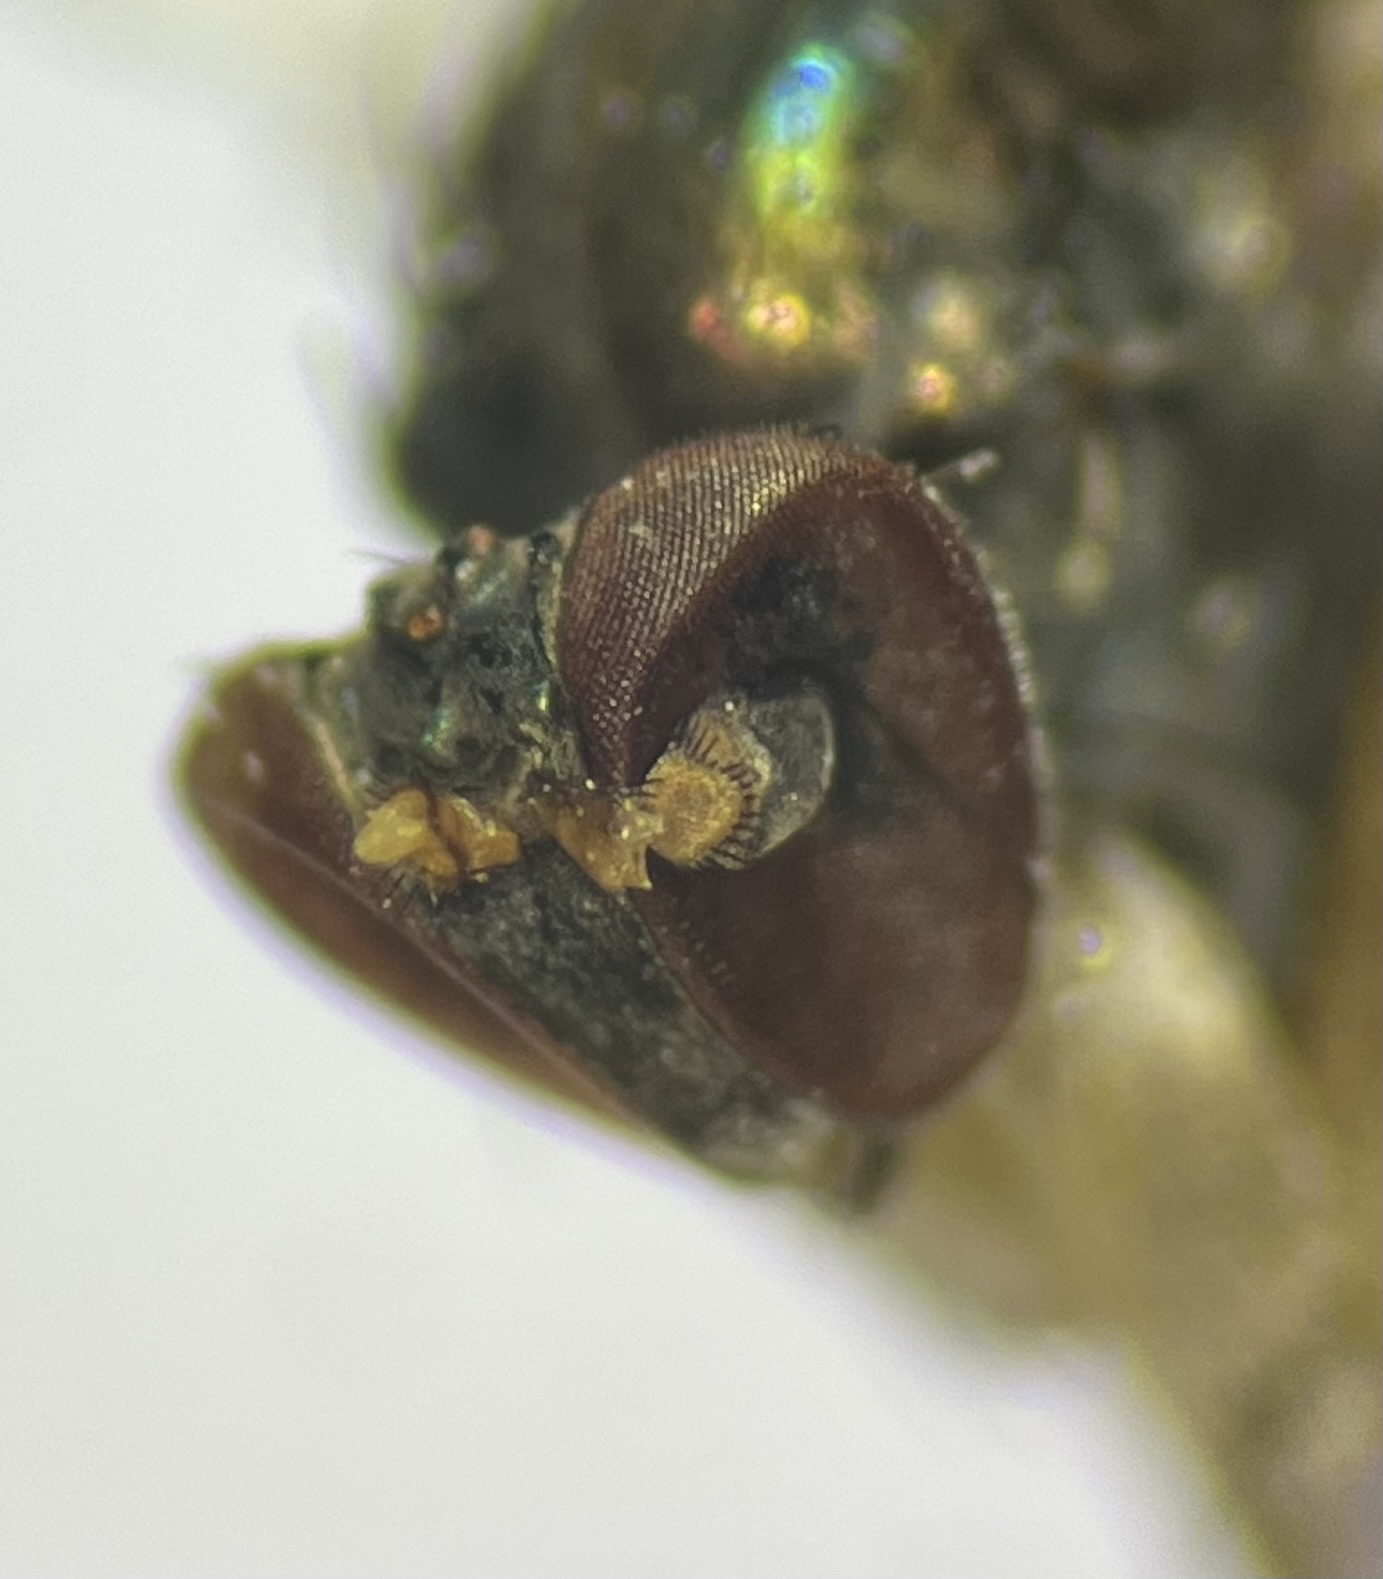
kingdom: Animalia
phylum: Arthropoda
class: Insecta
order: Diptera
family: Dolichopodidae
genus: Dolichopus
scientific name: Dolichopus reflectus
